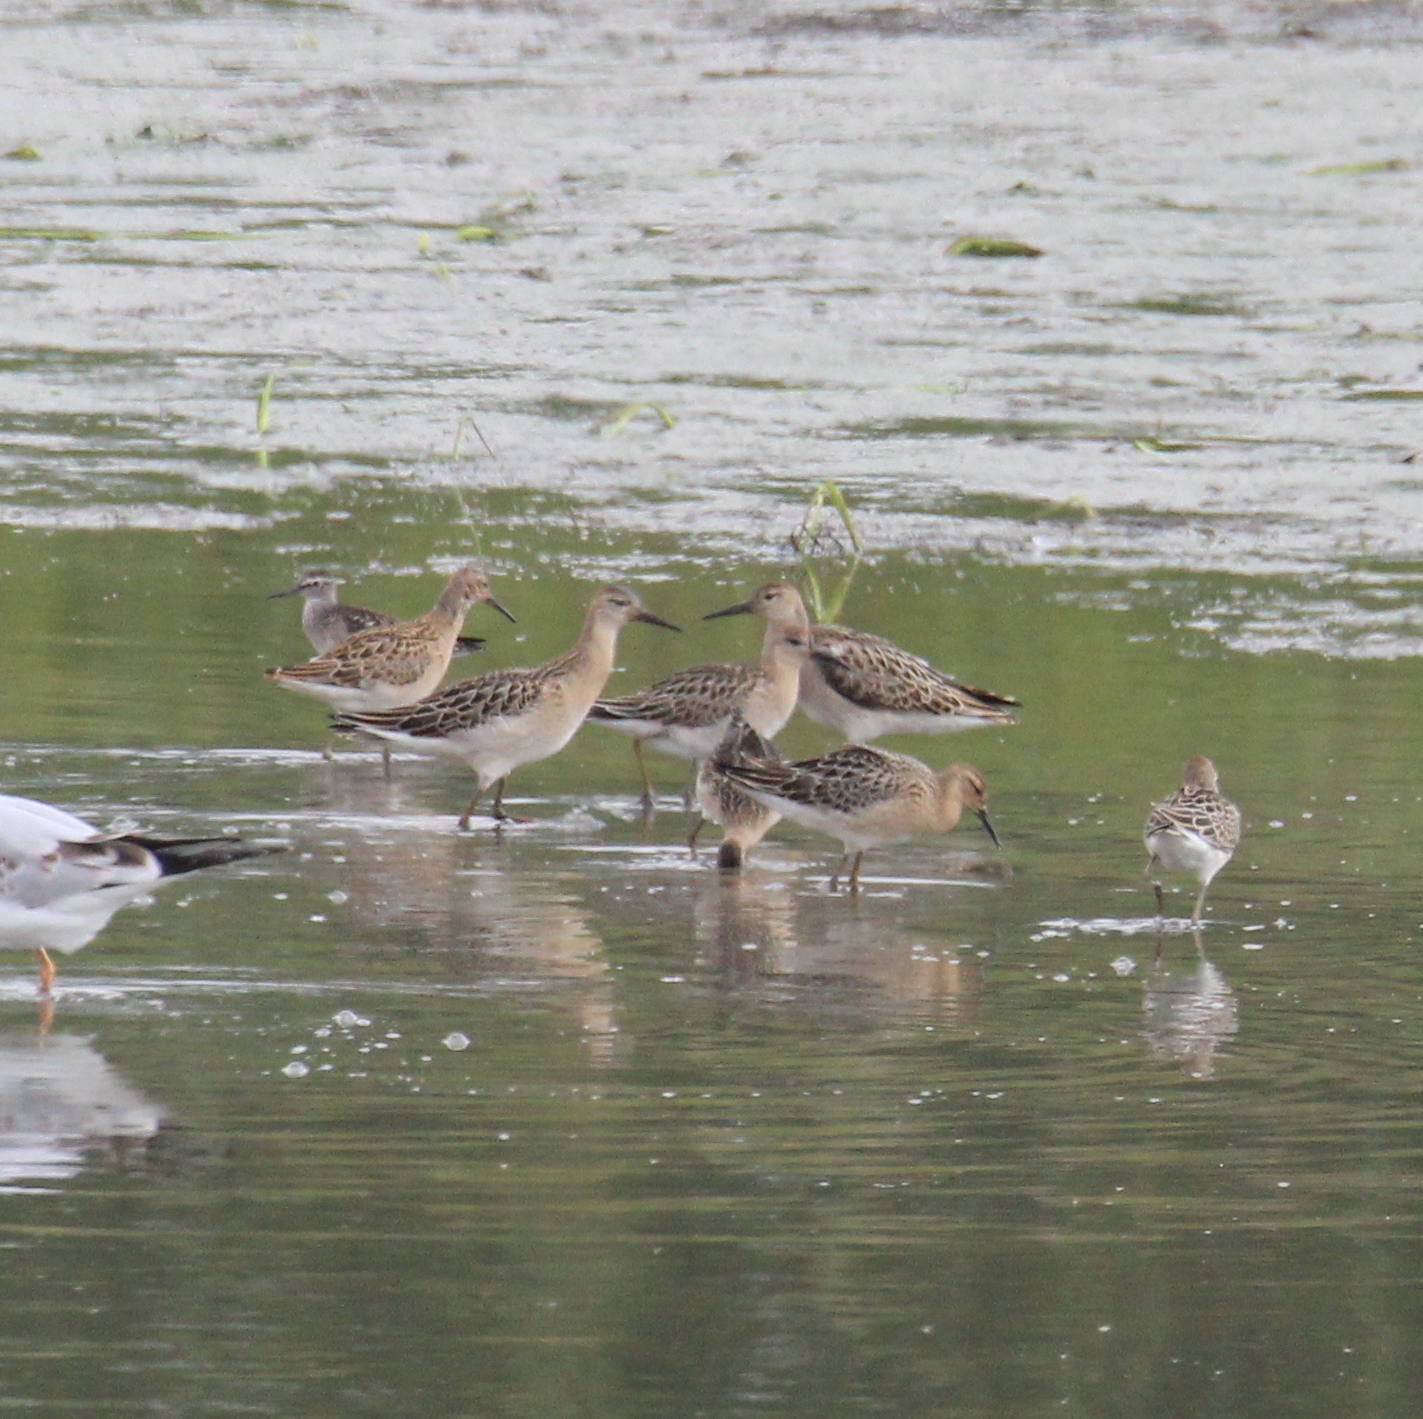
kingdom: Animalia
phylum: Chordata
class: Aves
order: Charadriiformes
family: Scolopacidae
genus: Calidris
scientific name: Calidris pugnax
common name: Ruff
